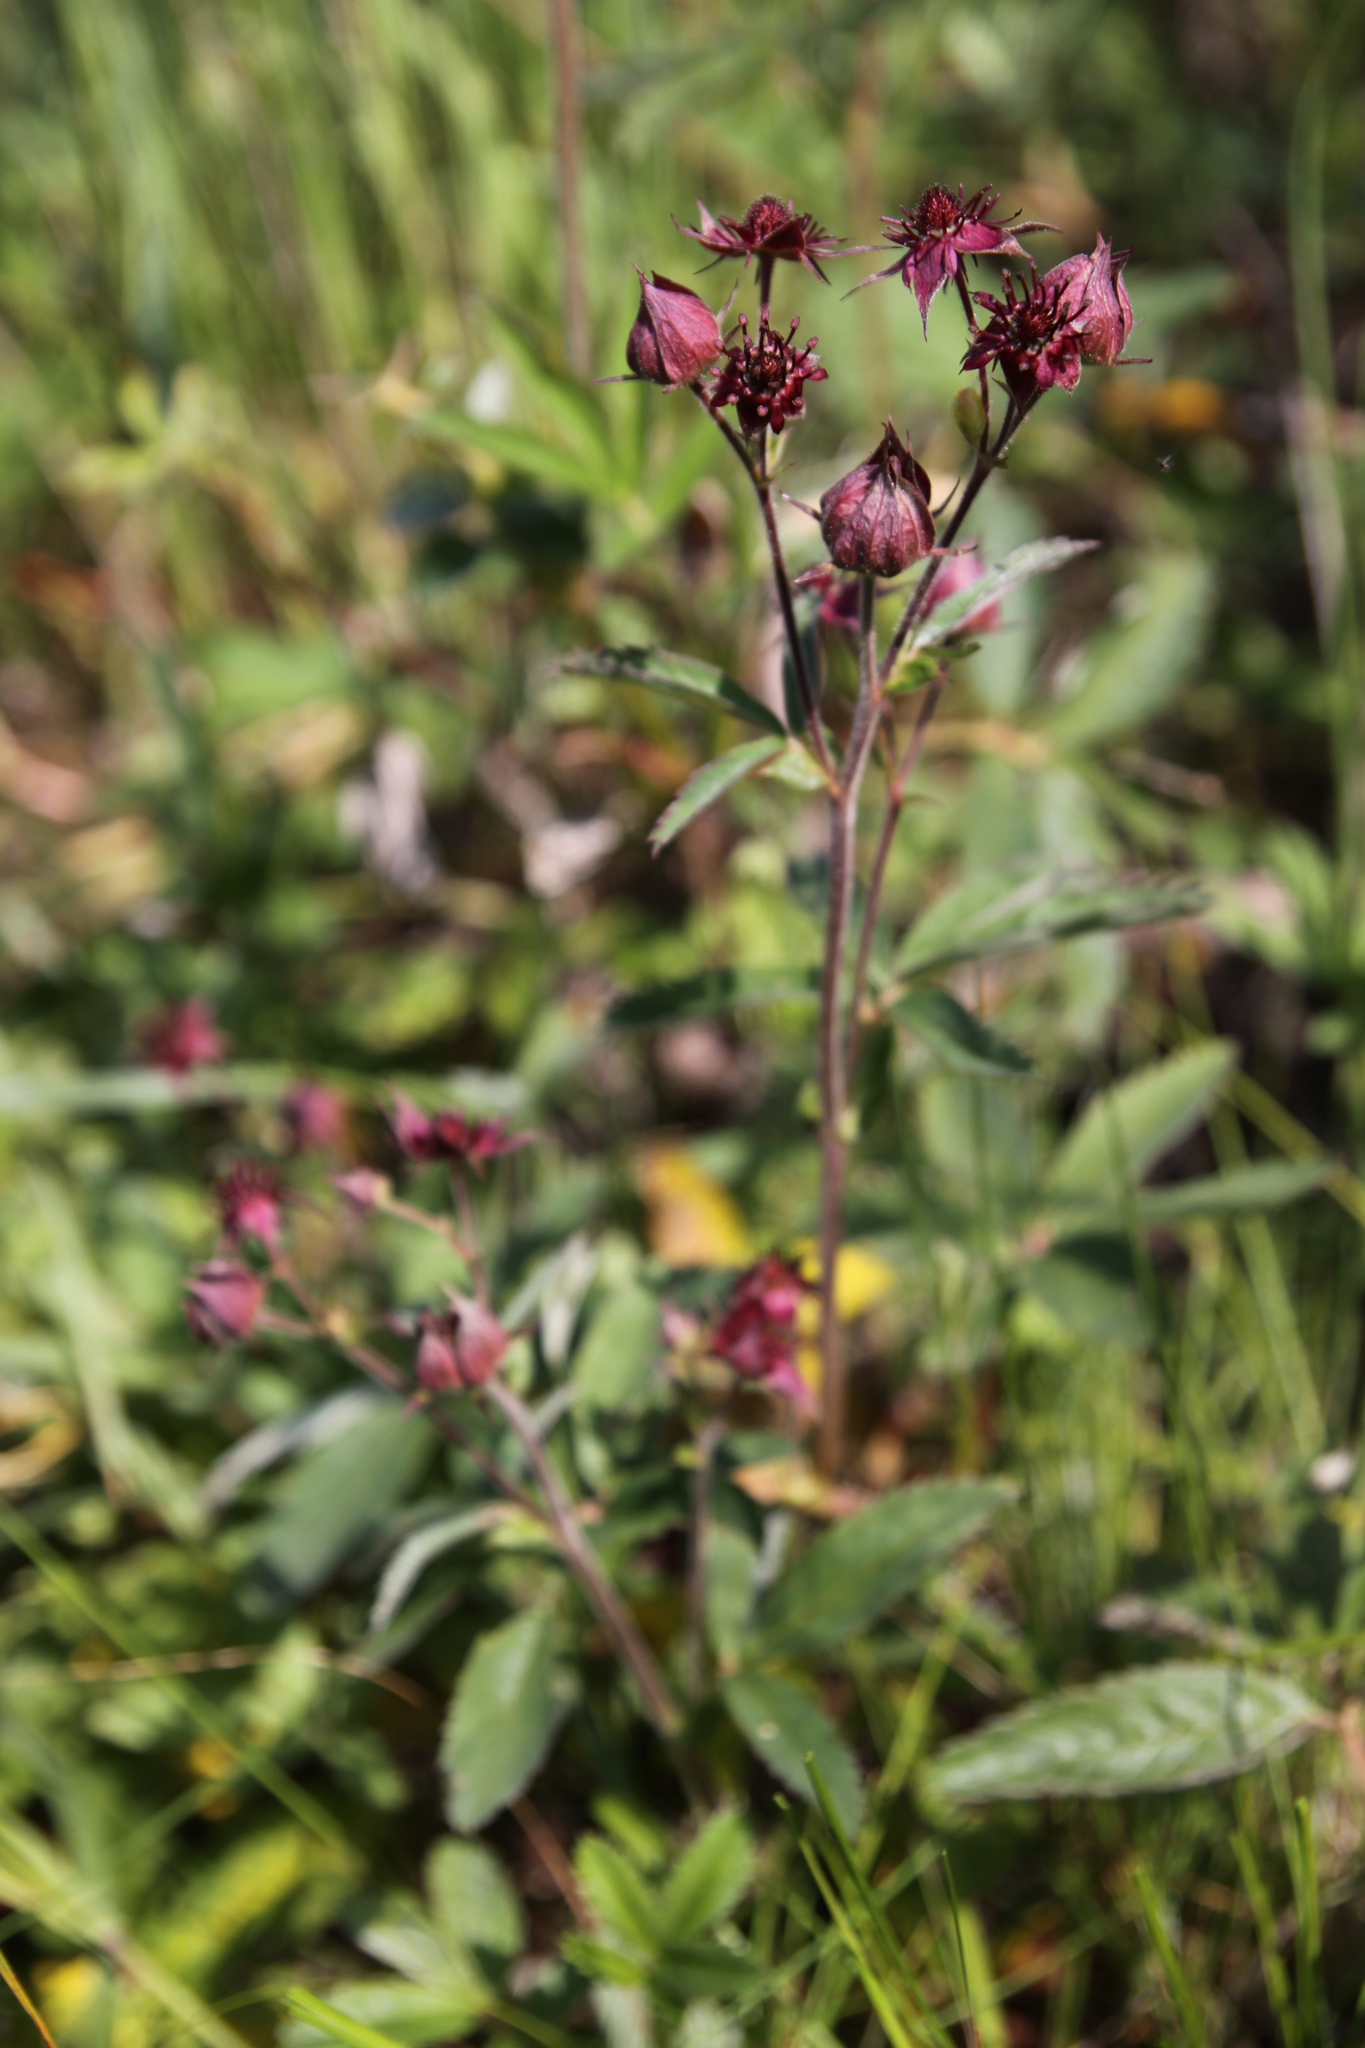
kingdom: Plantae
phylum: Tracheophyta
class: Magnoliopsida
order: Rosales
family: Rosaceae
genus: Comarum
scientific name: Comarum palustre
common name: Marsh cinquefoil
